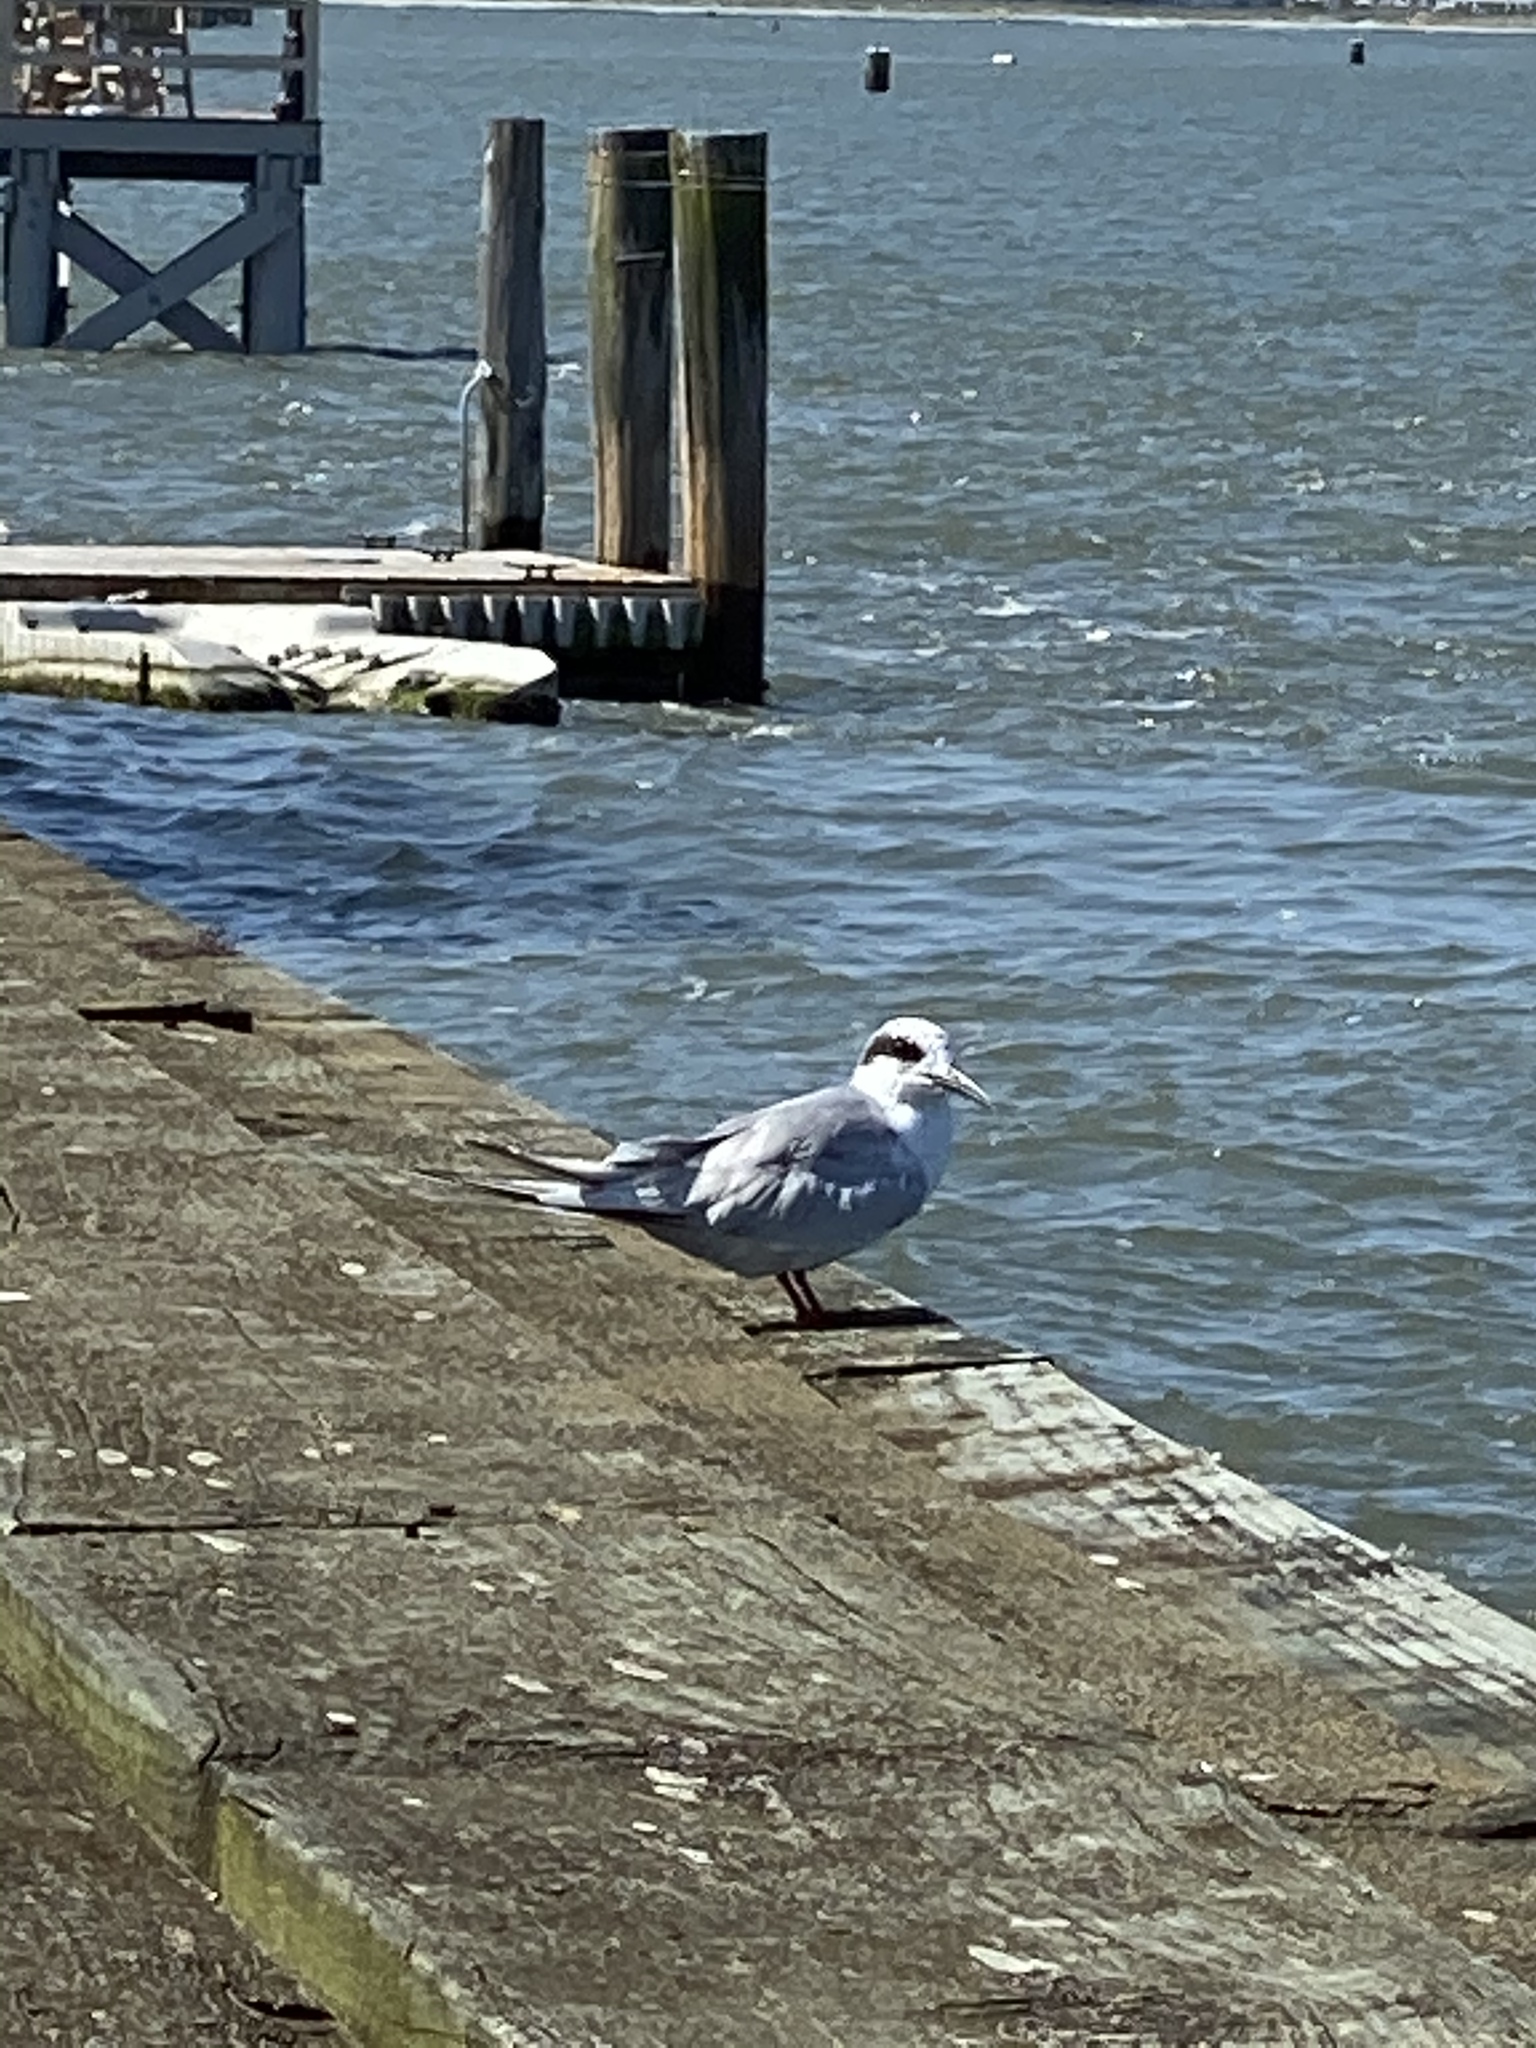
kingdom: Animalia
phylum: Chordata
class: Aves
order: Charadriiformes
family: Laridae
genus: Sterna
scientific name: Sterna forsteri
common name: Forster's tern
